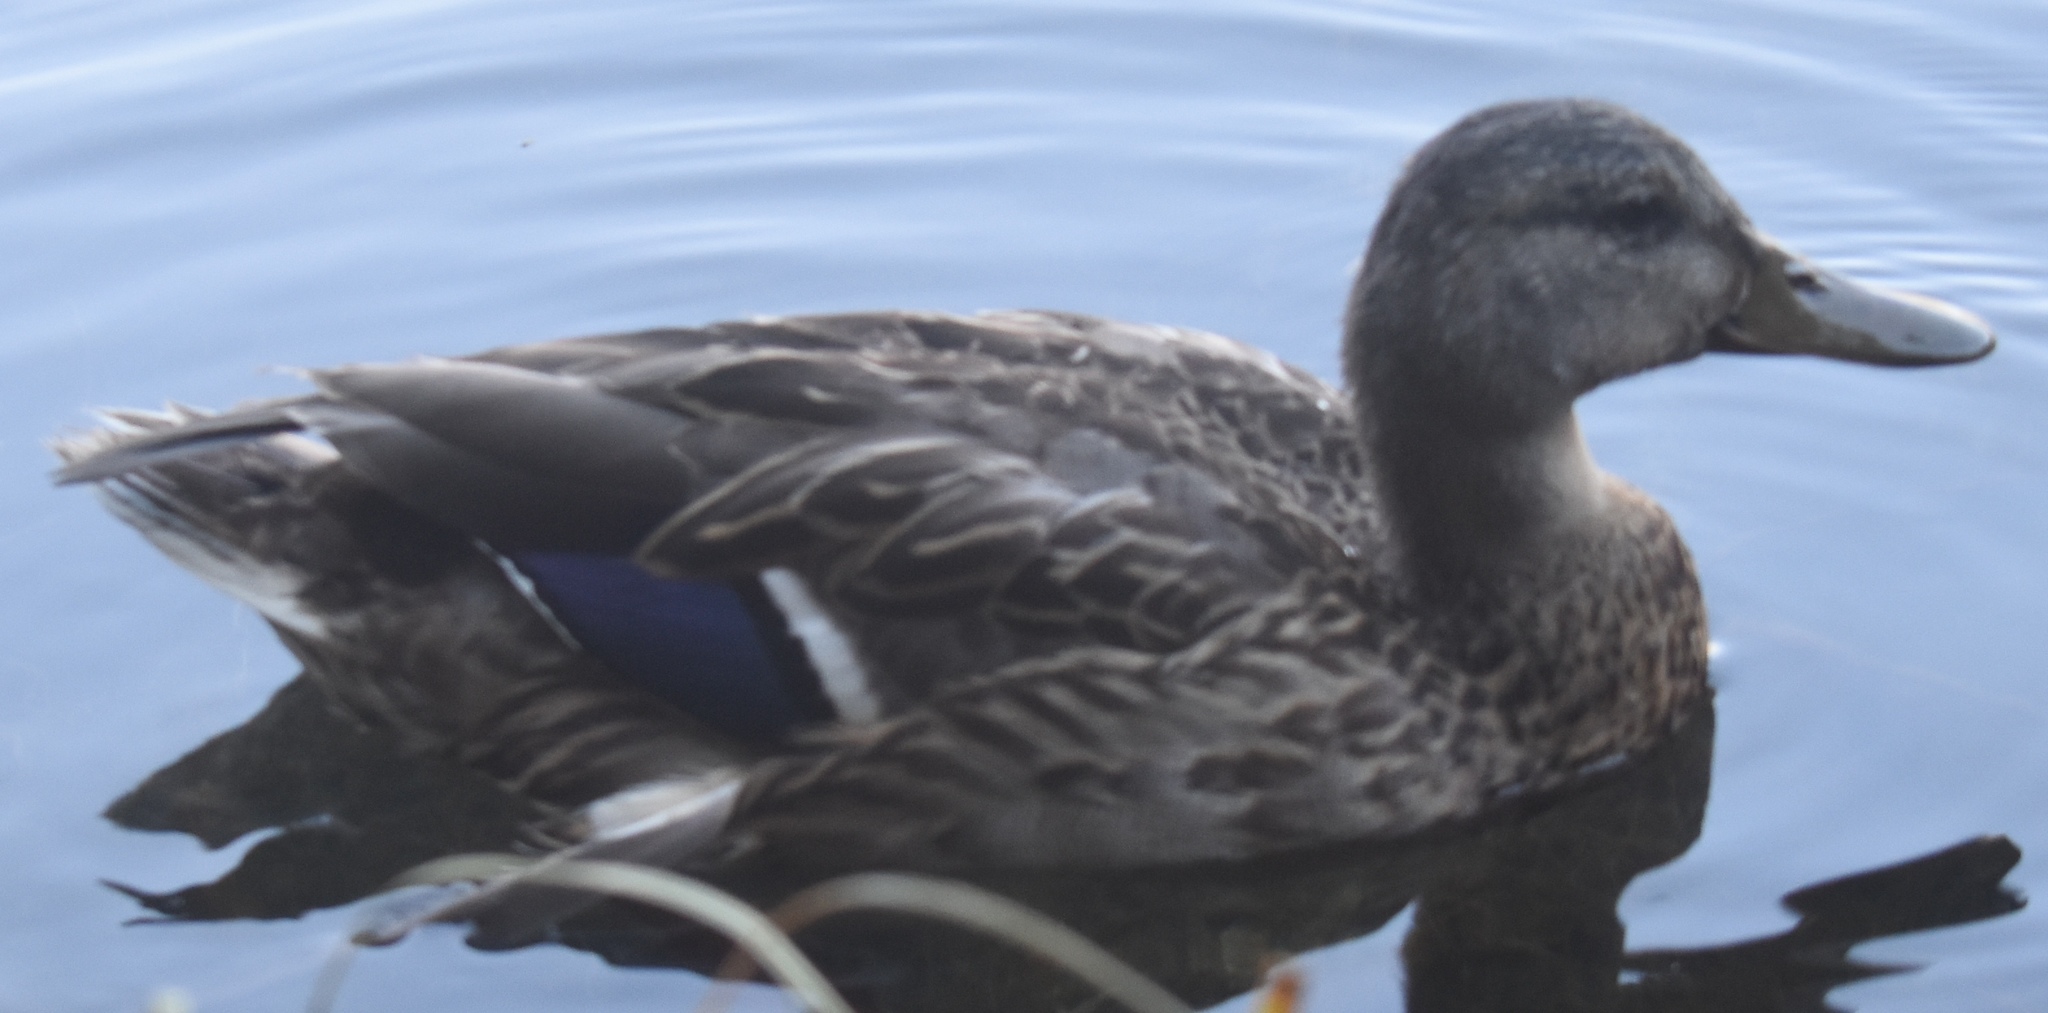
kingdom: Animalia
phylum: Chordata
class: Aves
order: Anseriformes
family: Anatidae
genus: Anas
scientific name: Anas platyrhynchos
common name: Mallard
